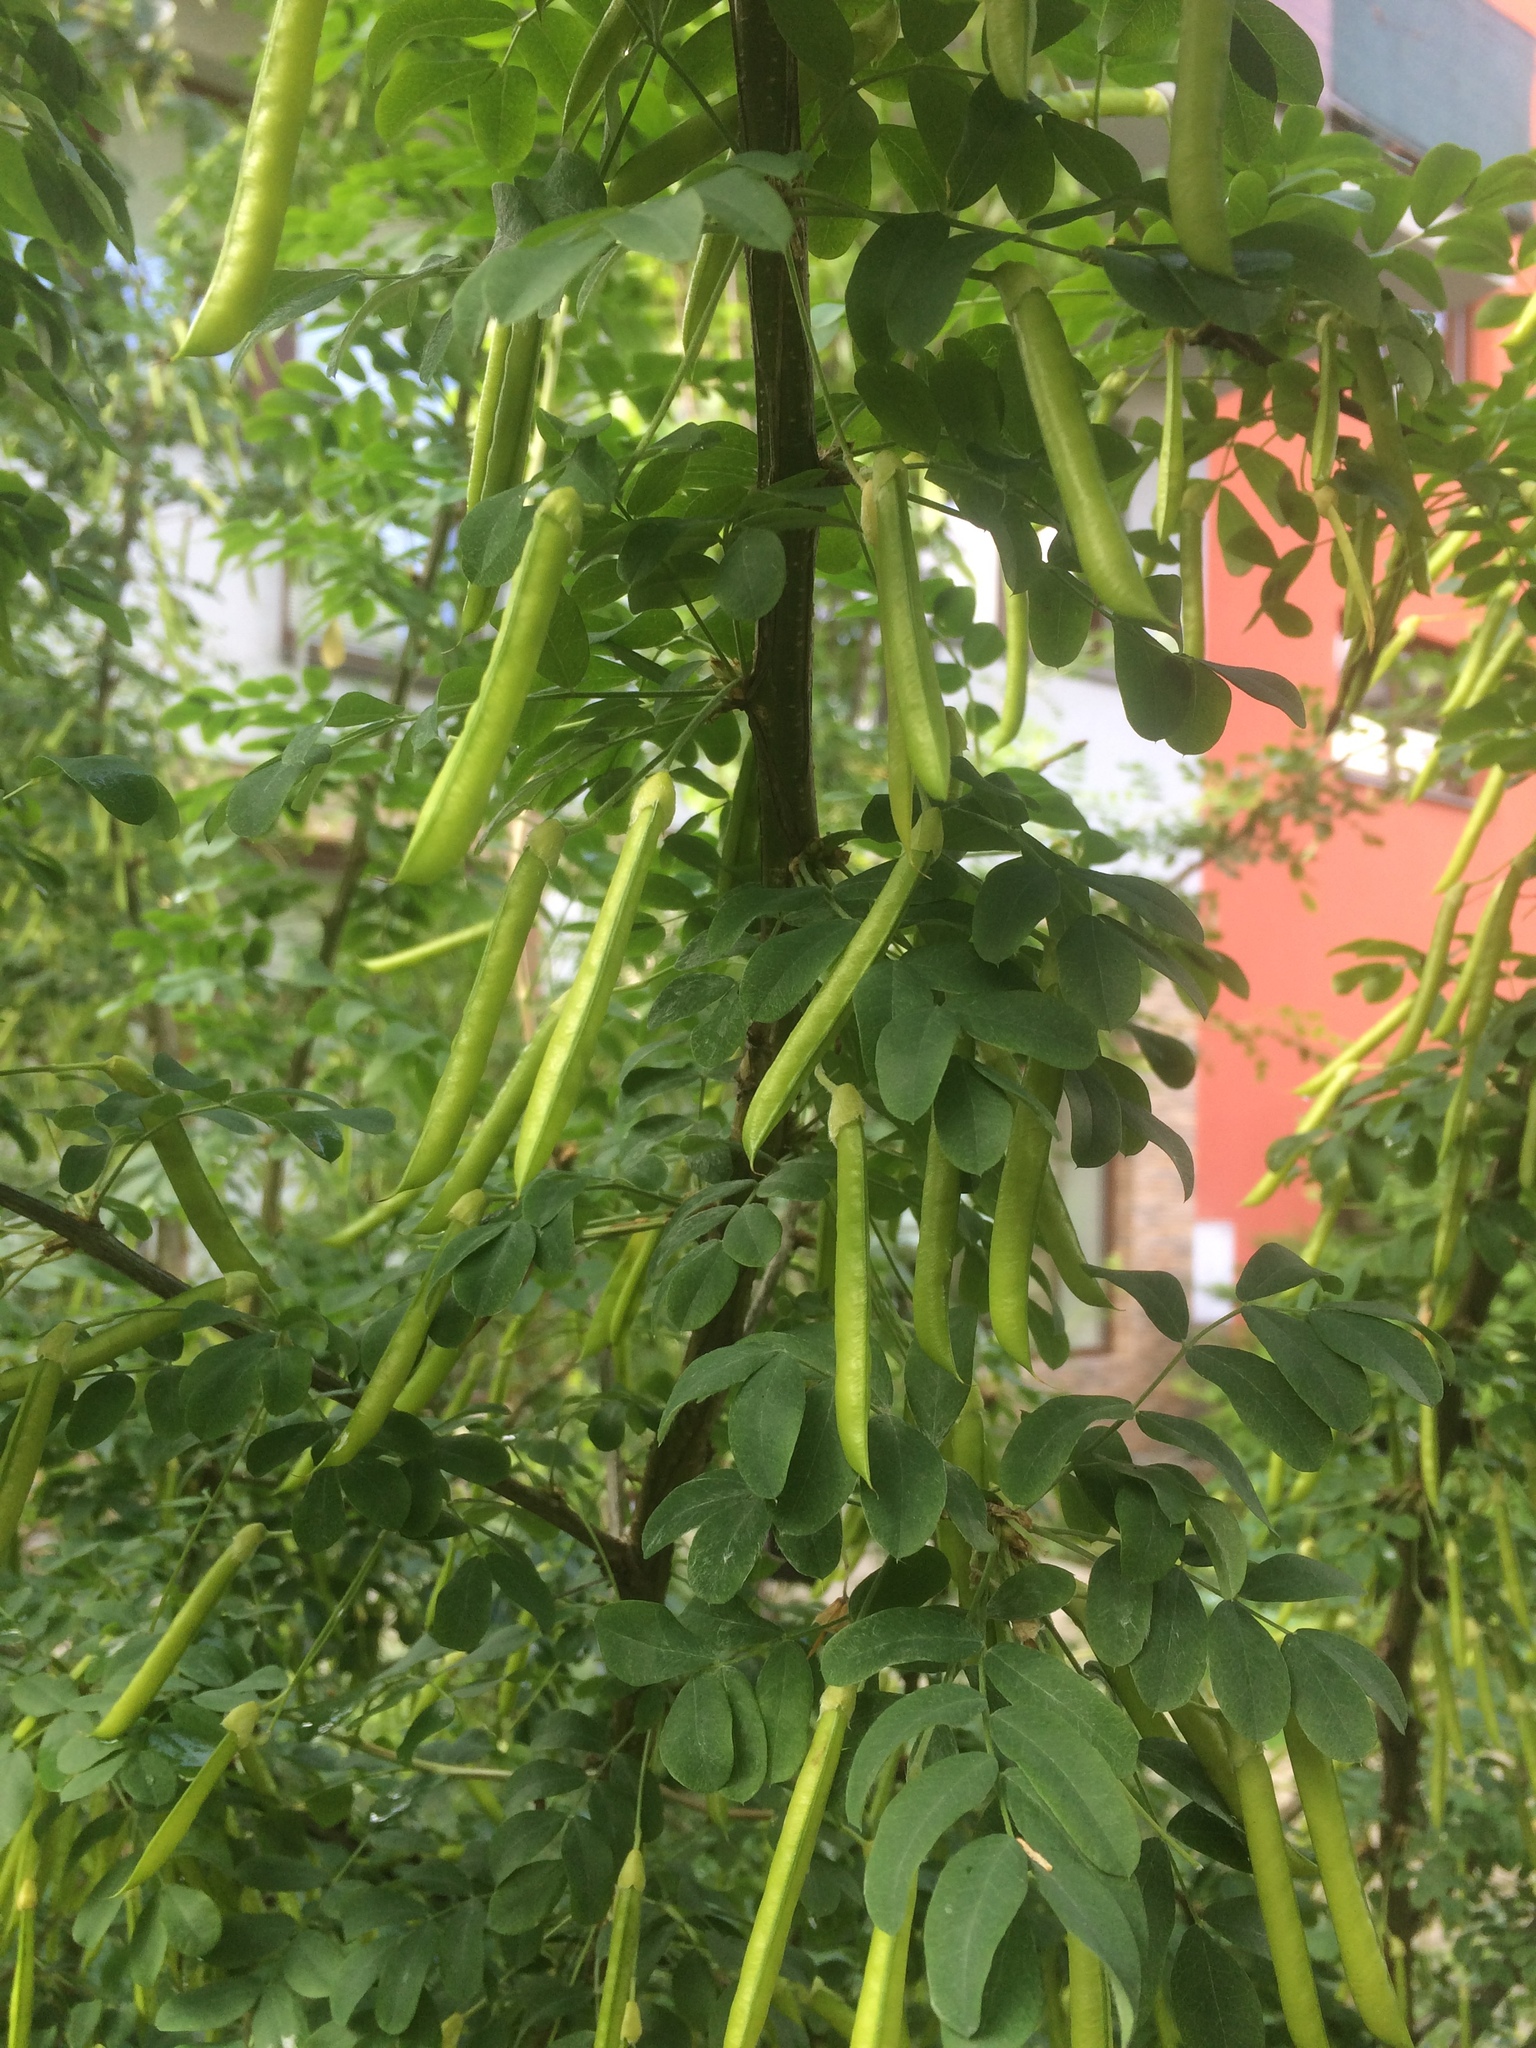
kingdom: Plantae
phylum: Tracheophyta
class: Magnoliopsida
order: Fabales
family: Fabaceae
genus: Caragana
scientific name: Caragana arborescens
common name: Siberian peashrub
